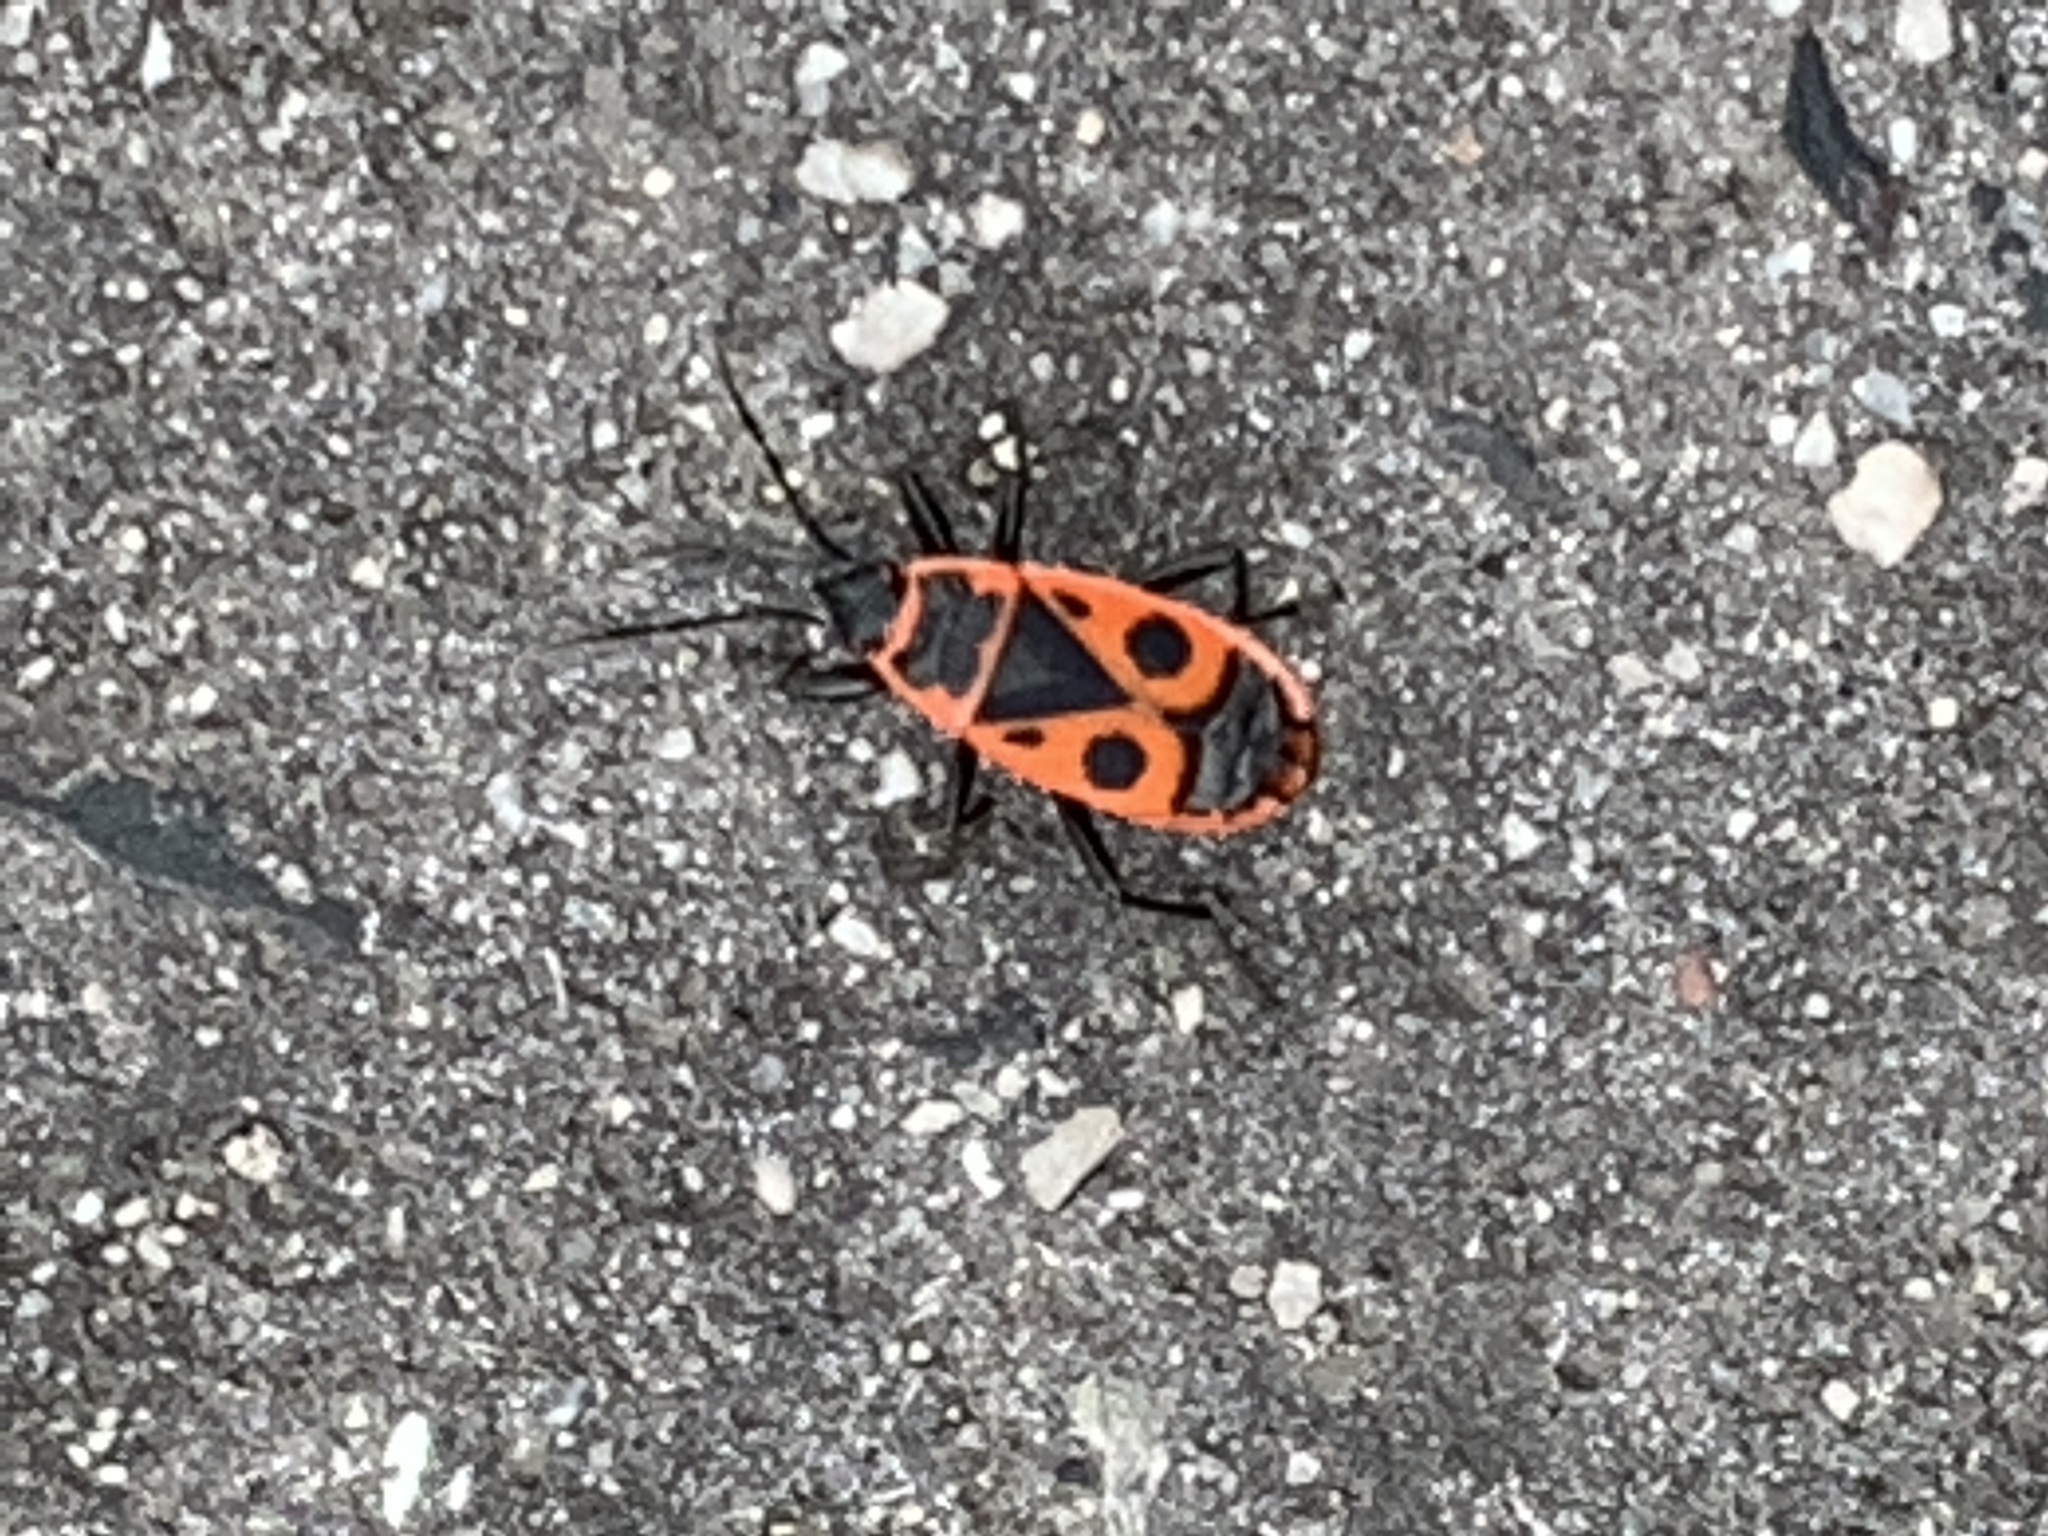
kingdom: Animalia
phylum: Arthropoda
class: Insecta
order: Hemiptera
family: Pyrrhocoridae
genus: Pyrrhocoris
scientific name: Pyrrhocoris apterus
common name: Firebug
